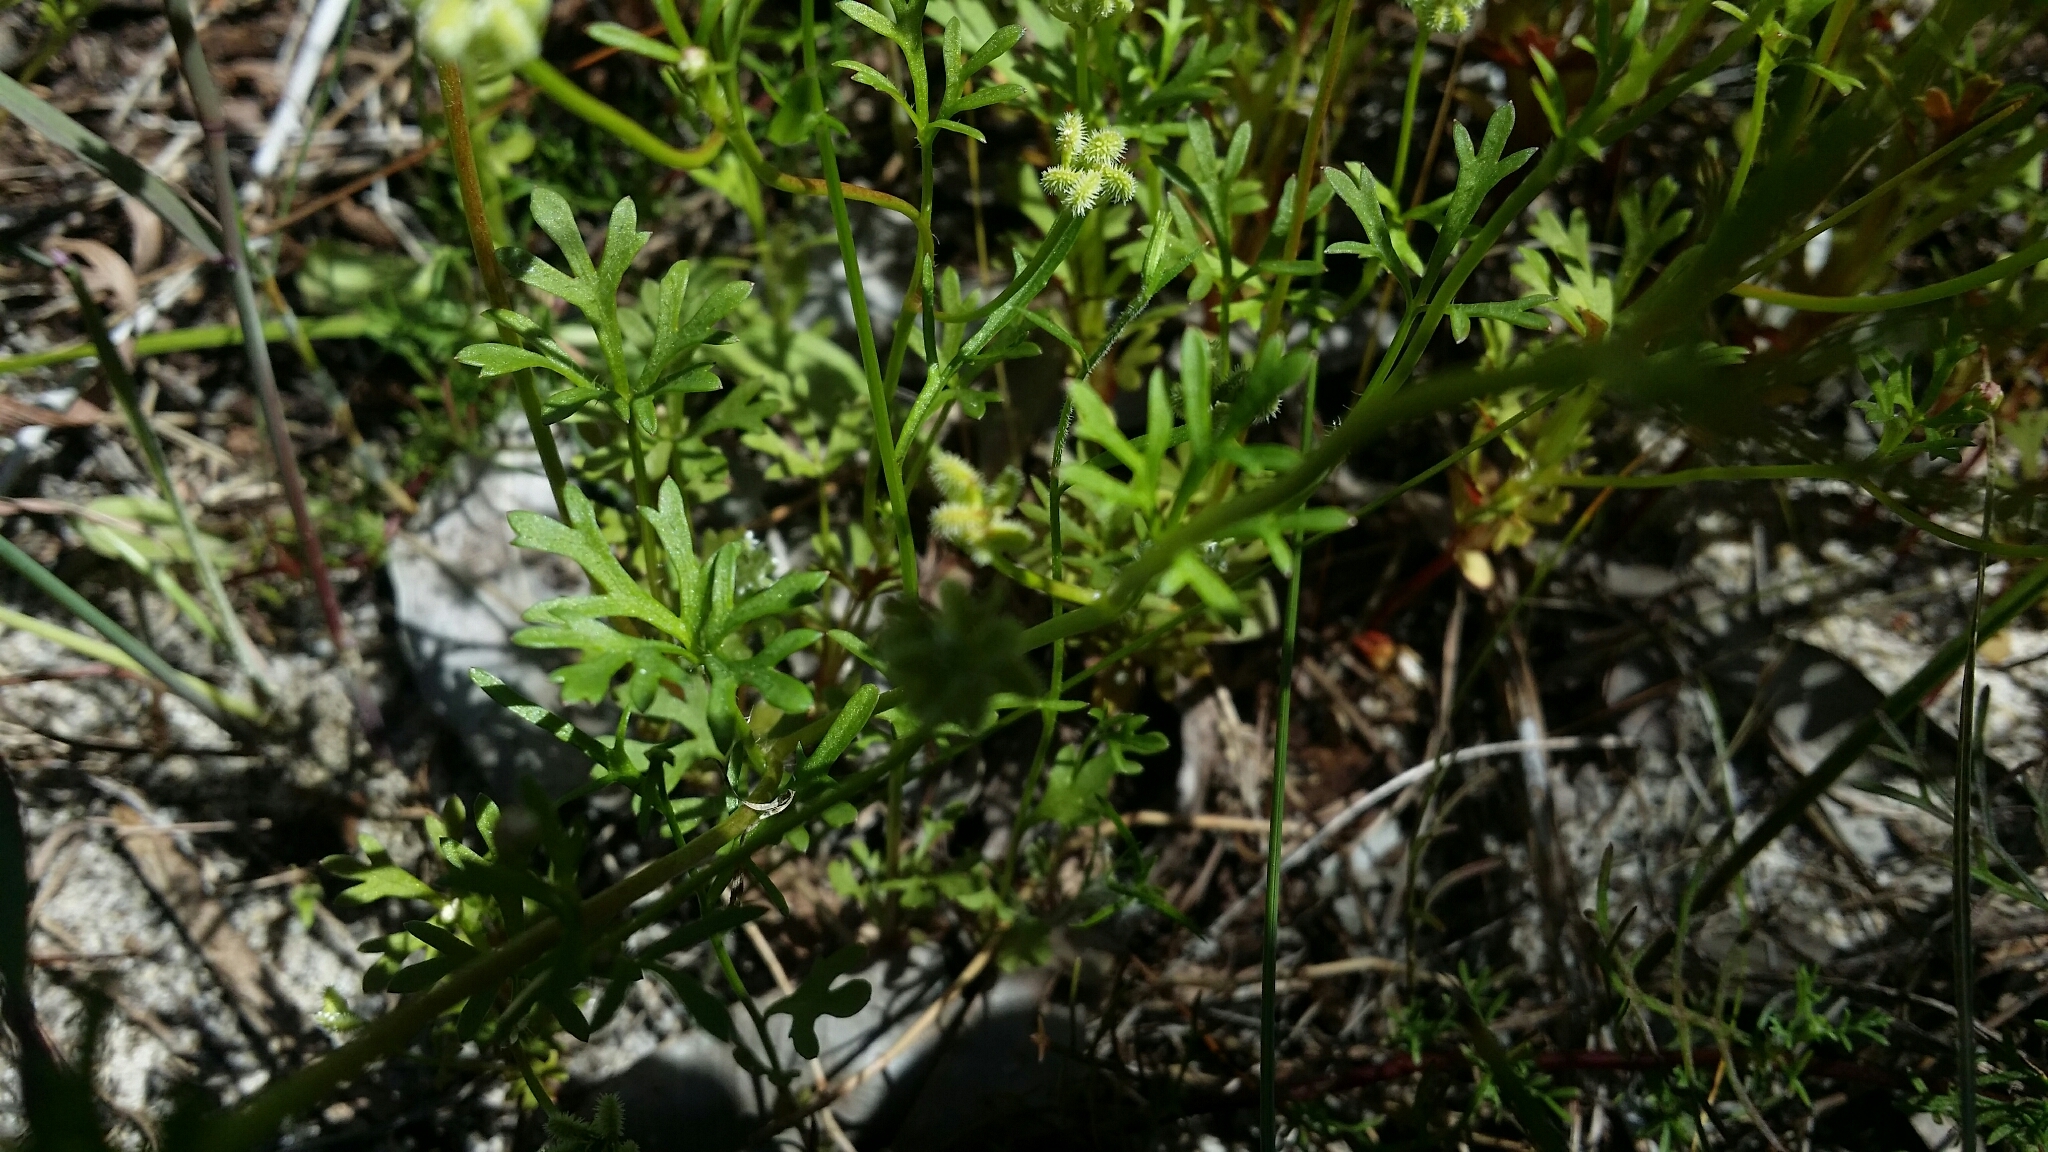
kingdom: Plantae
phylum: Tracheophyta
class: Magnoliopsida
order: Apiales
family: Araliaceae
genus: Trachymene
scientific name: Trachymene pilosa
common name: Dwarf trachymene
